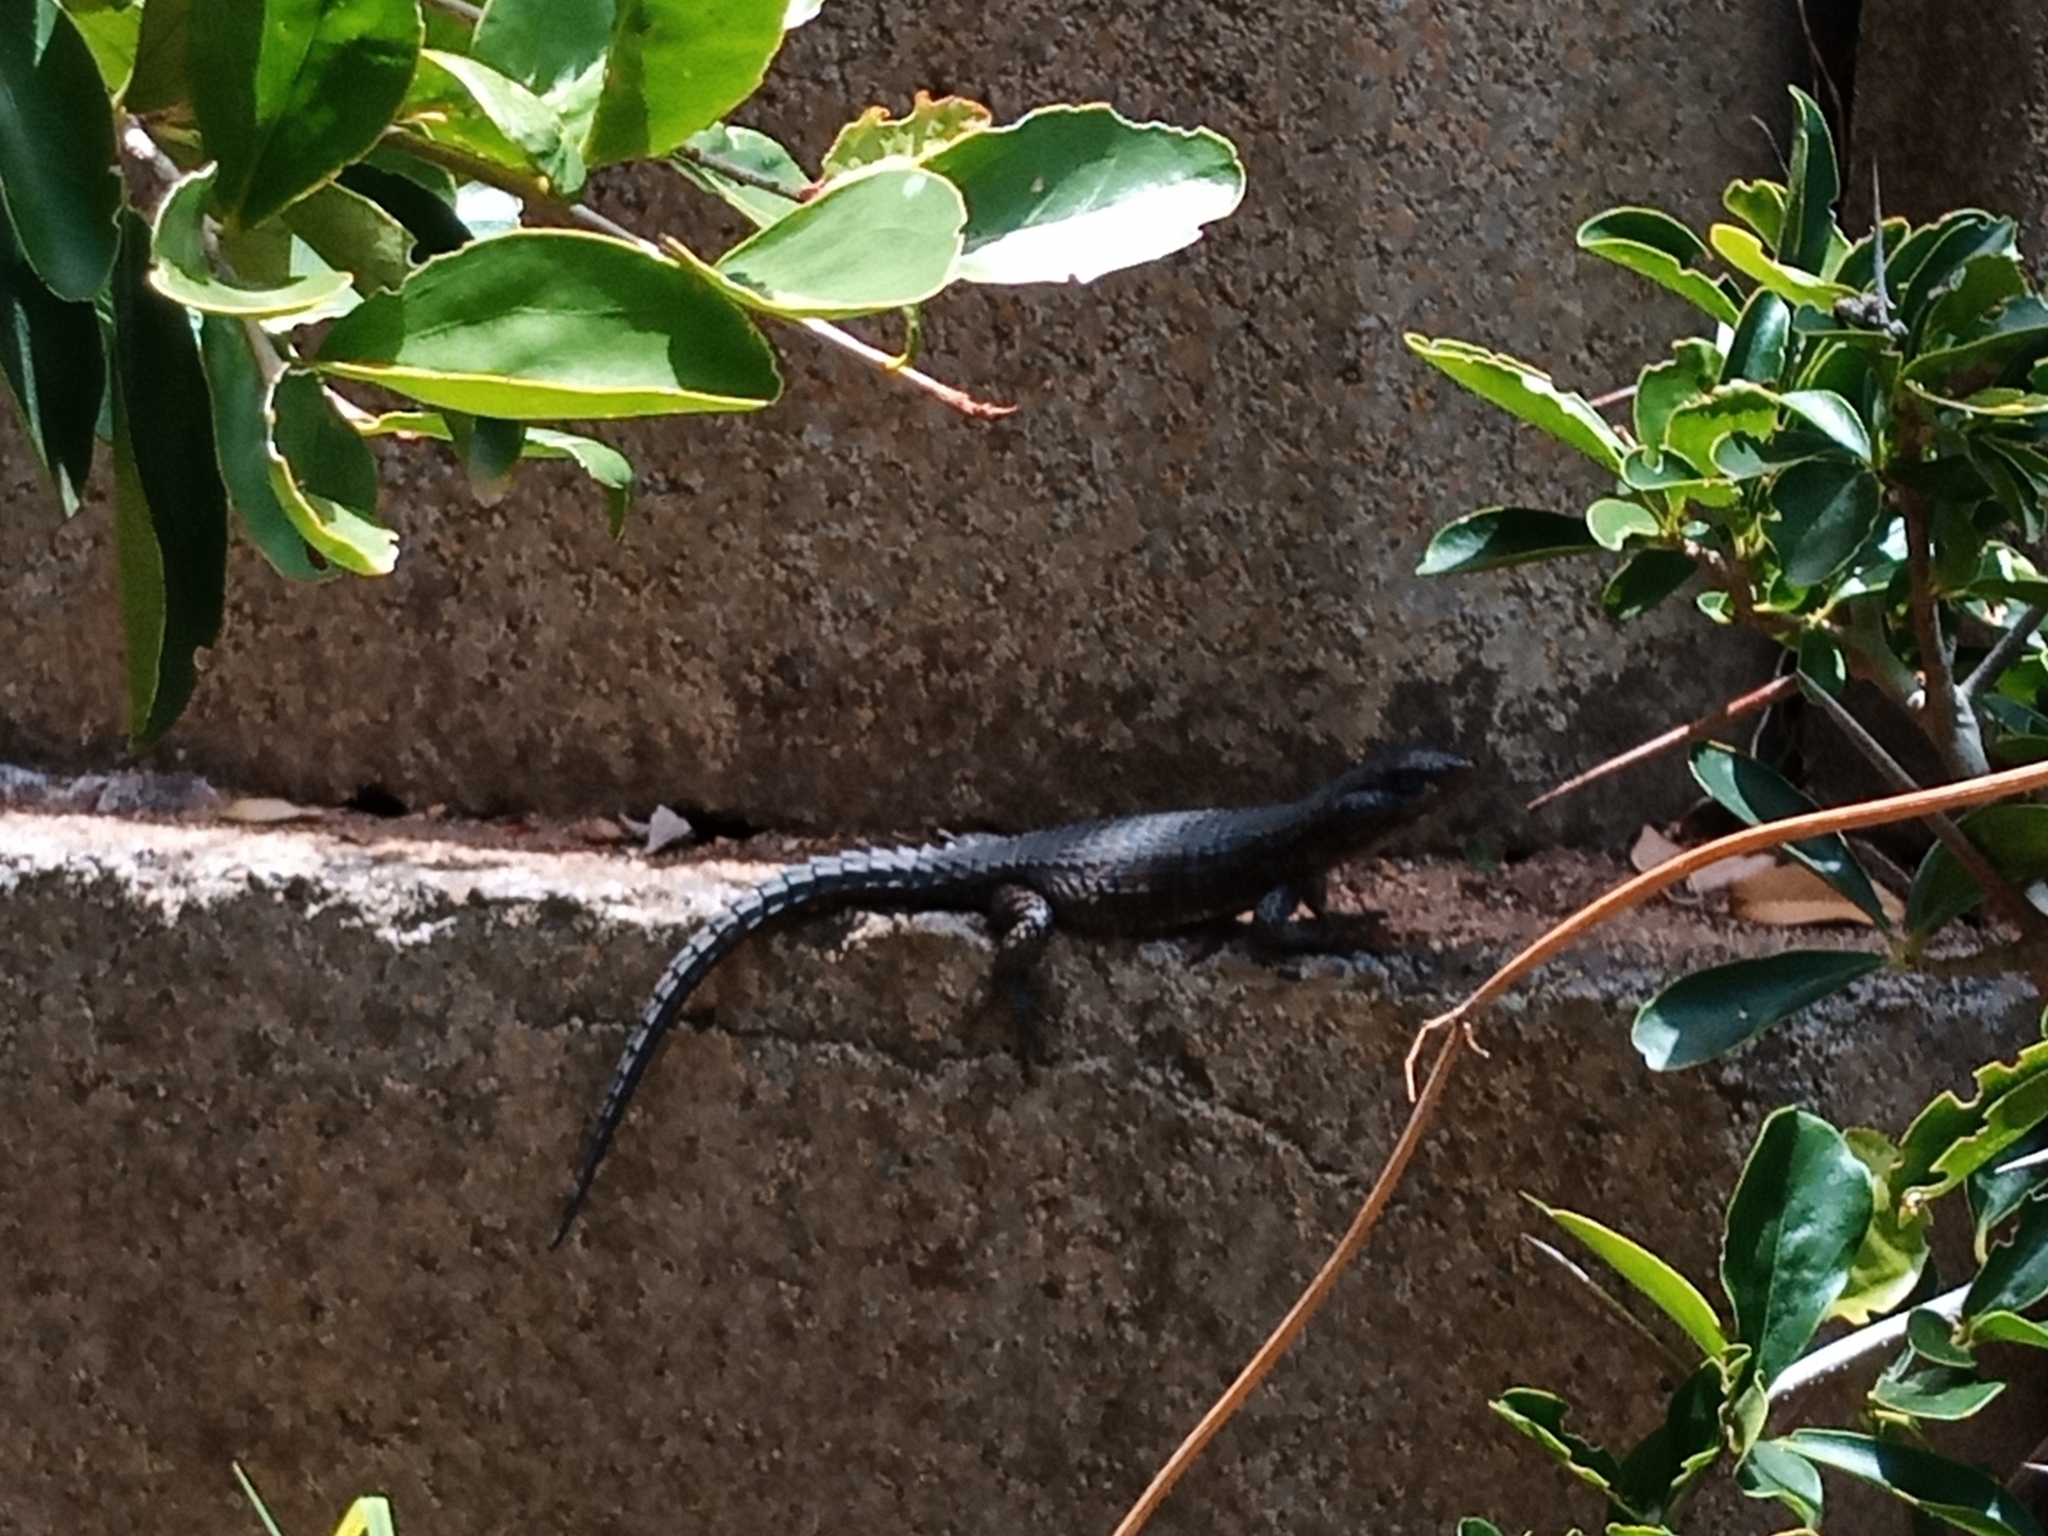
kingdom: Animalia
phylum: Chordata
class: Squamata
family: Cordylidae
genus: Cordylus
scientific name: Cordylus niger
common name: Black girdled lizard
